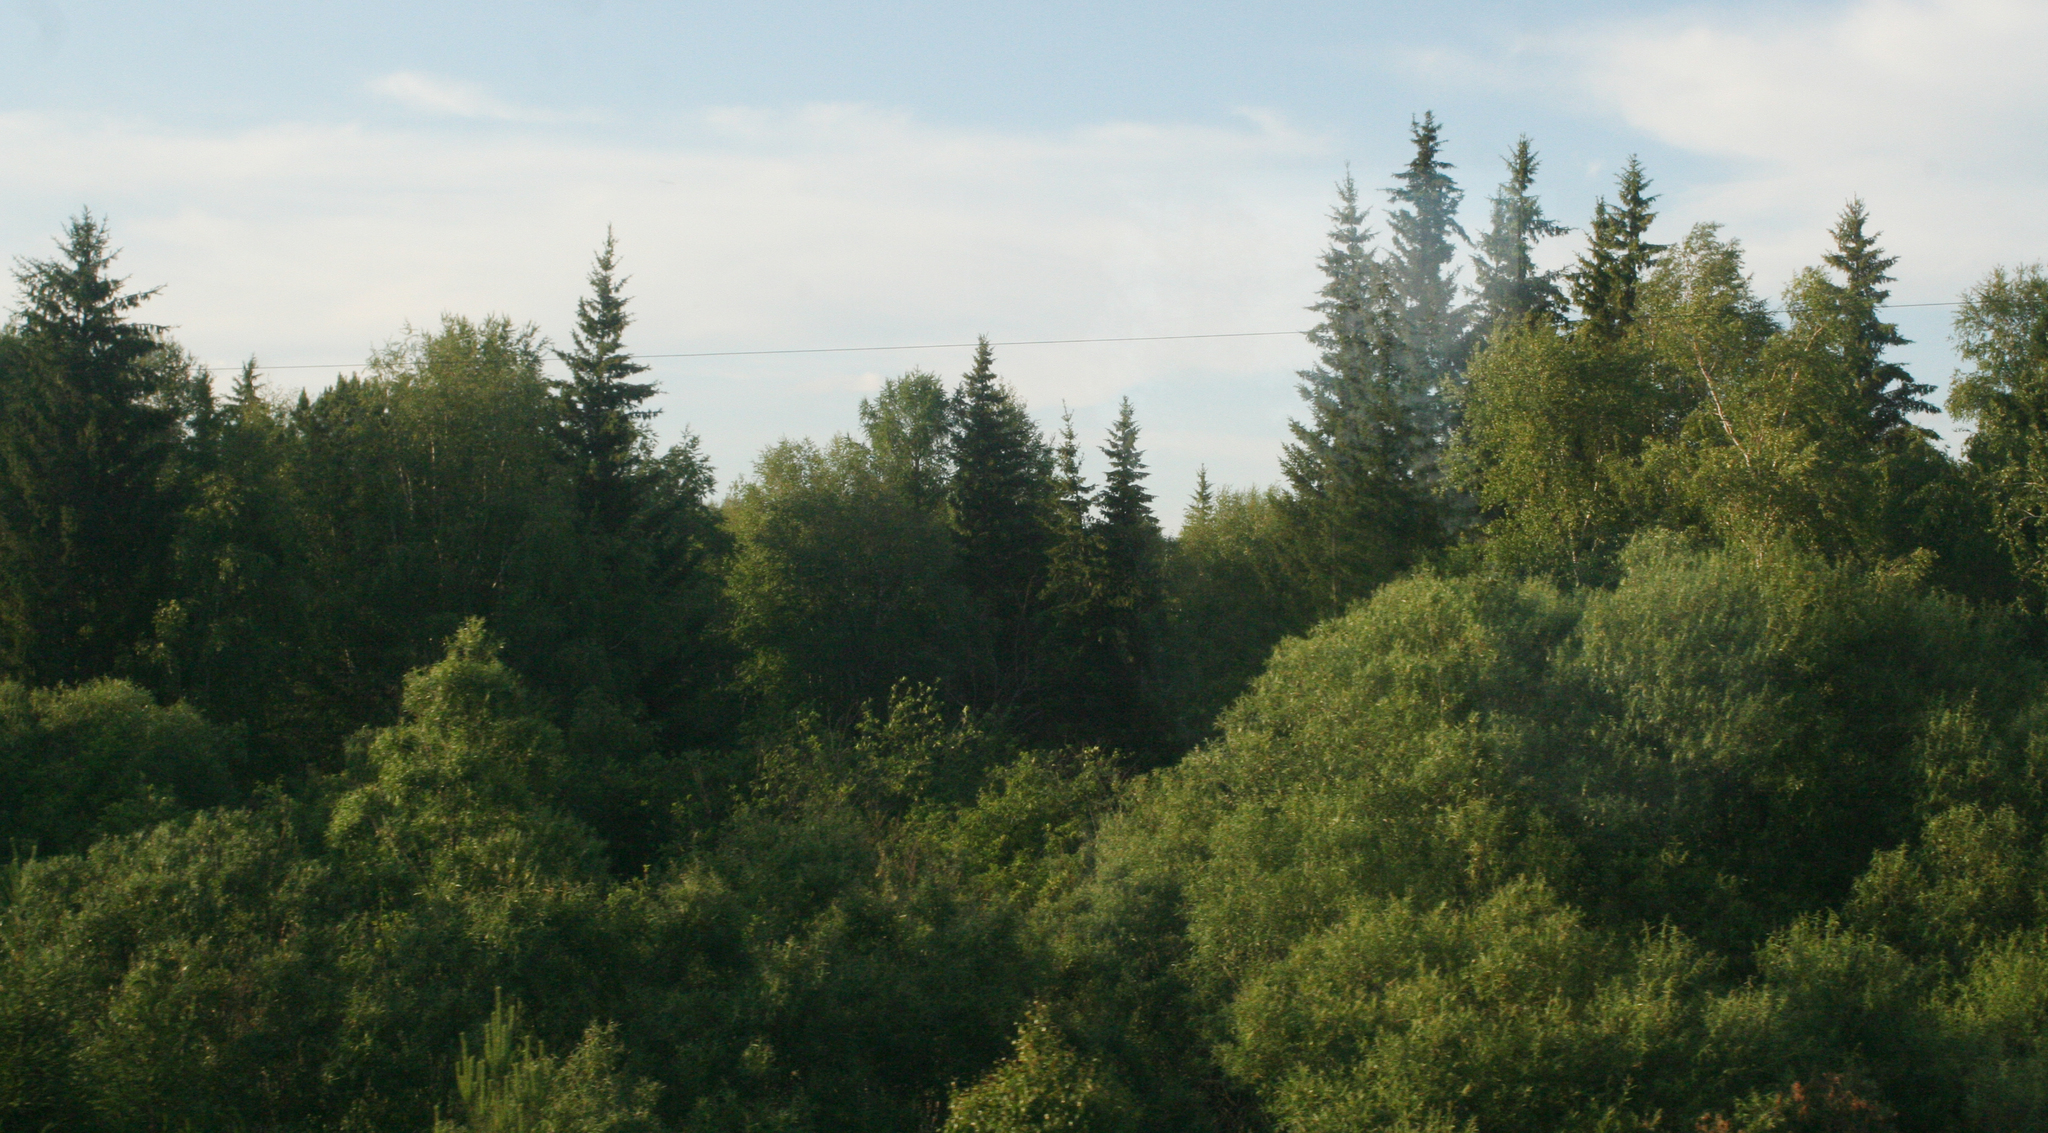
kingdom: Plantae
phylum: Tracheophyta
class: Pinopsida
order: Pinales
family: Pinaceae
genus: Picea
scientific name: Picea obovata
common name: Siberian spruce
